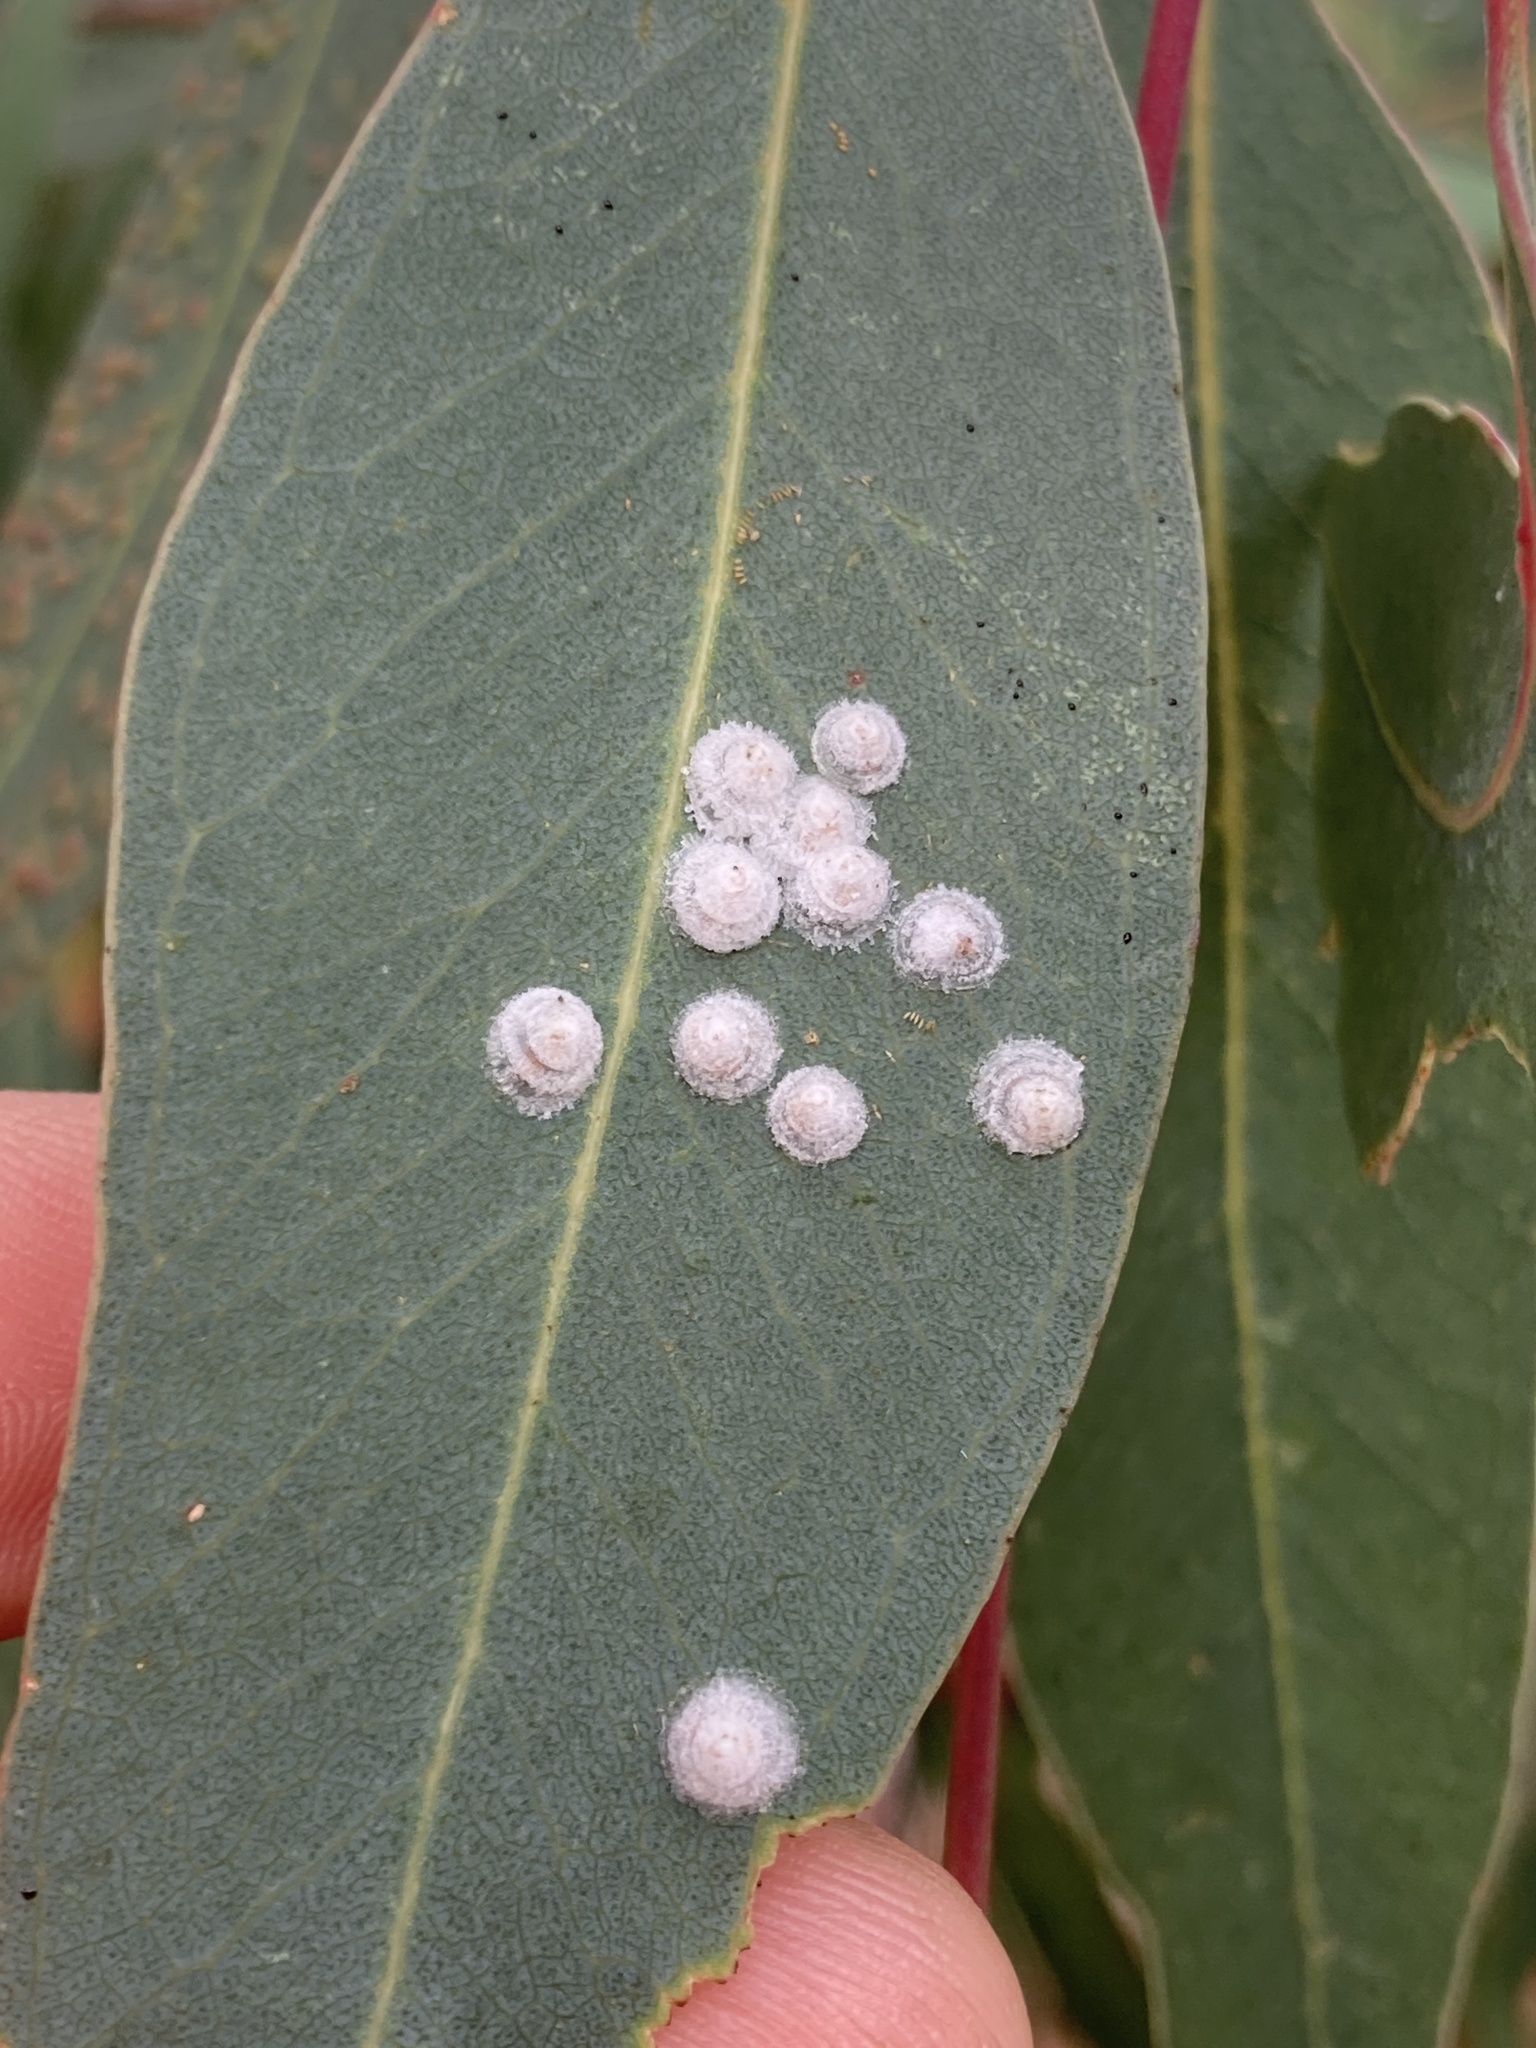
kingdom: Animalia
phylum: Arthropoda
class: Insecta
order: Hemiptera
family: Aphalaridae
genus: Glycaspis
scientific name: Glycaspis brimblecombei
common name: Red gum lerp psyllid
